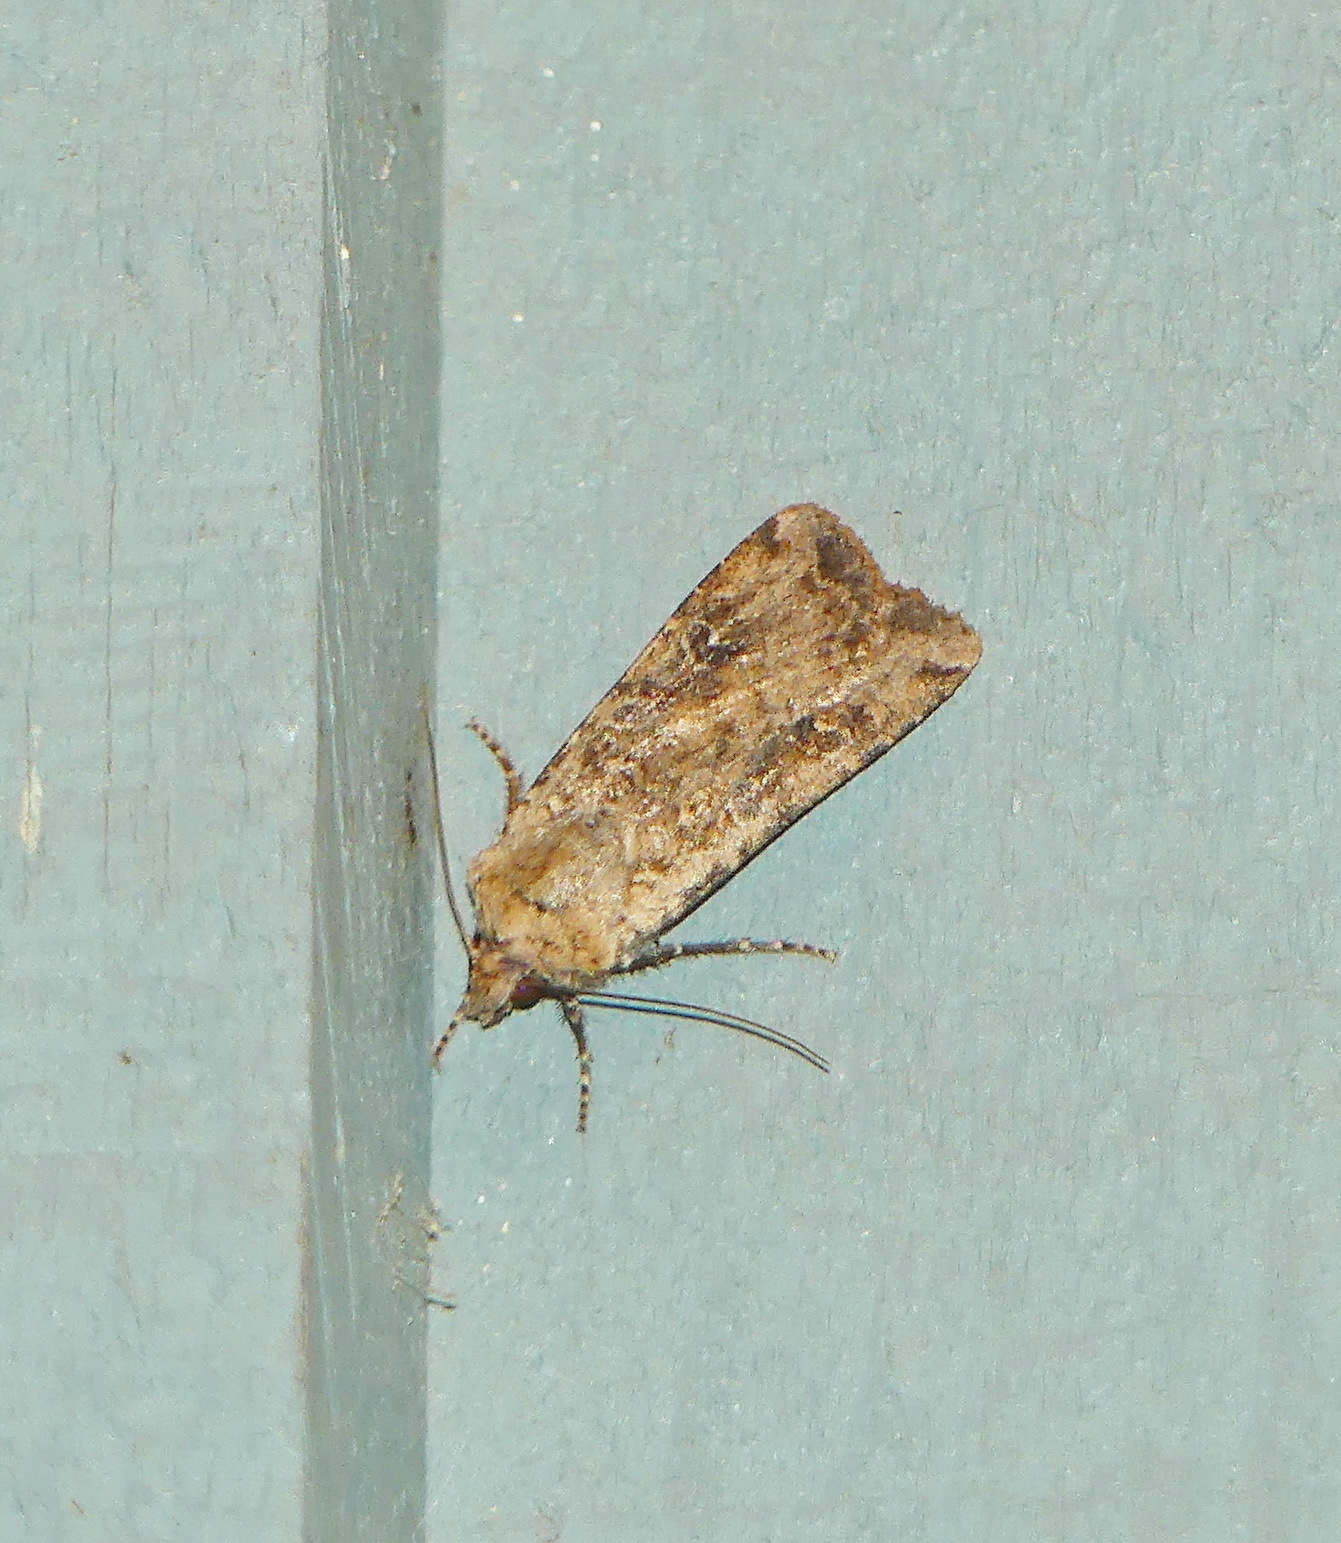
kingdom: Animalia
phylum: Arthropoda
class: Insecta
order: Lepidoptera
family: Noctuidae
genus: Euxoa
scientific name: Euxoa ochrogaster
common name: Red-backed cutworm moth
